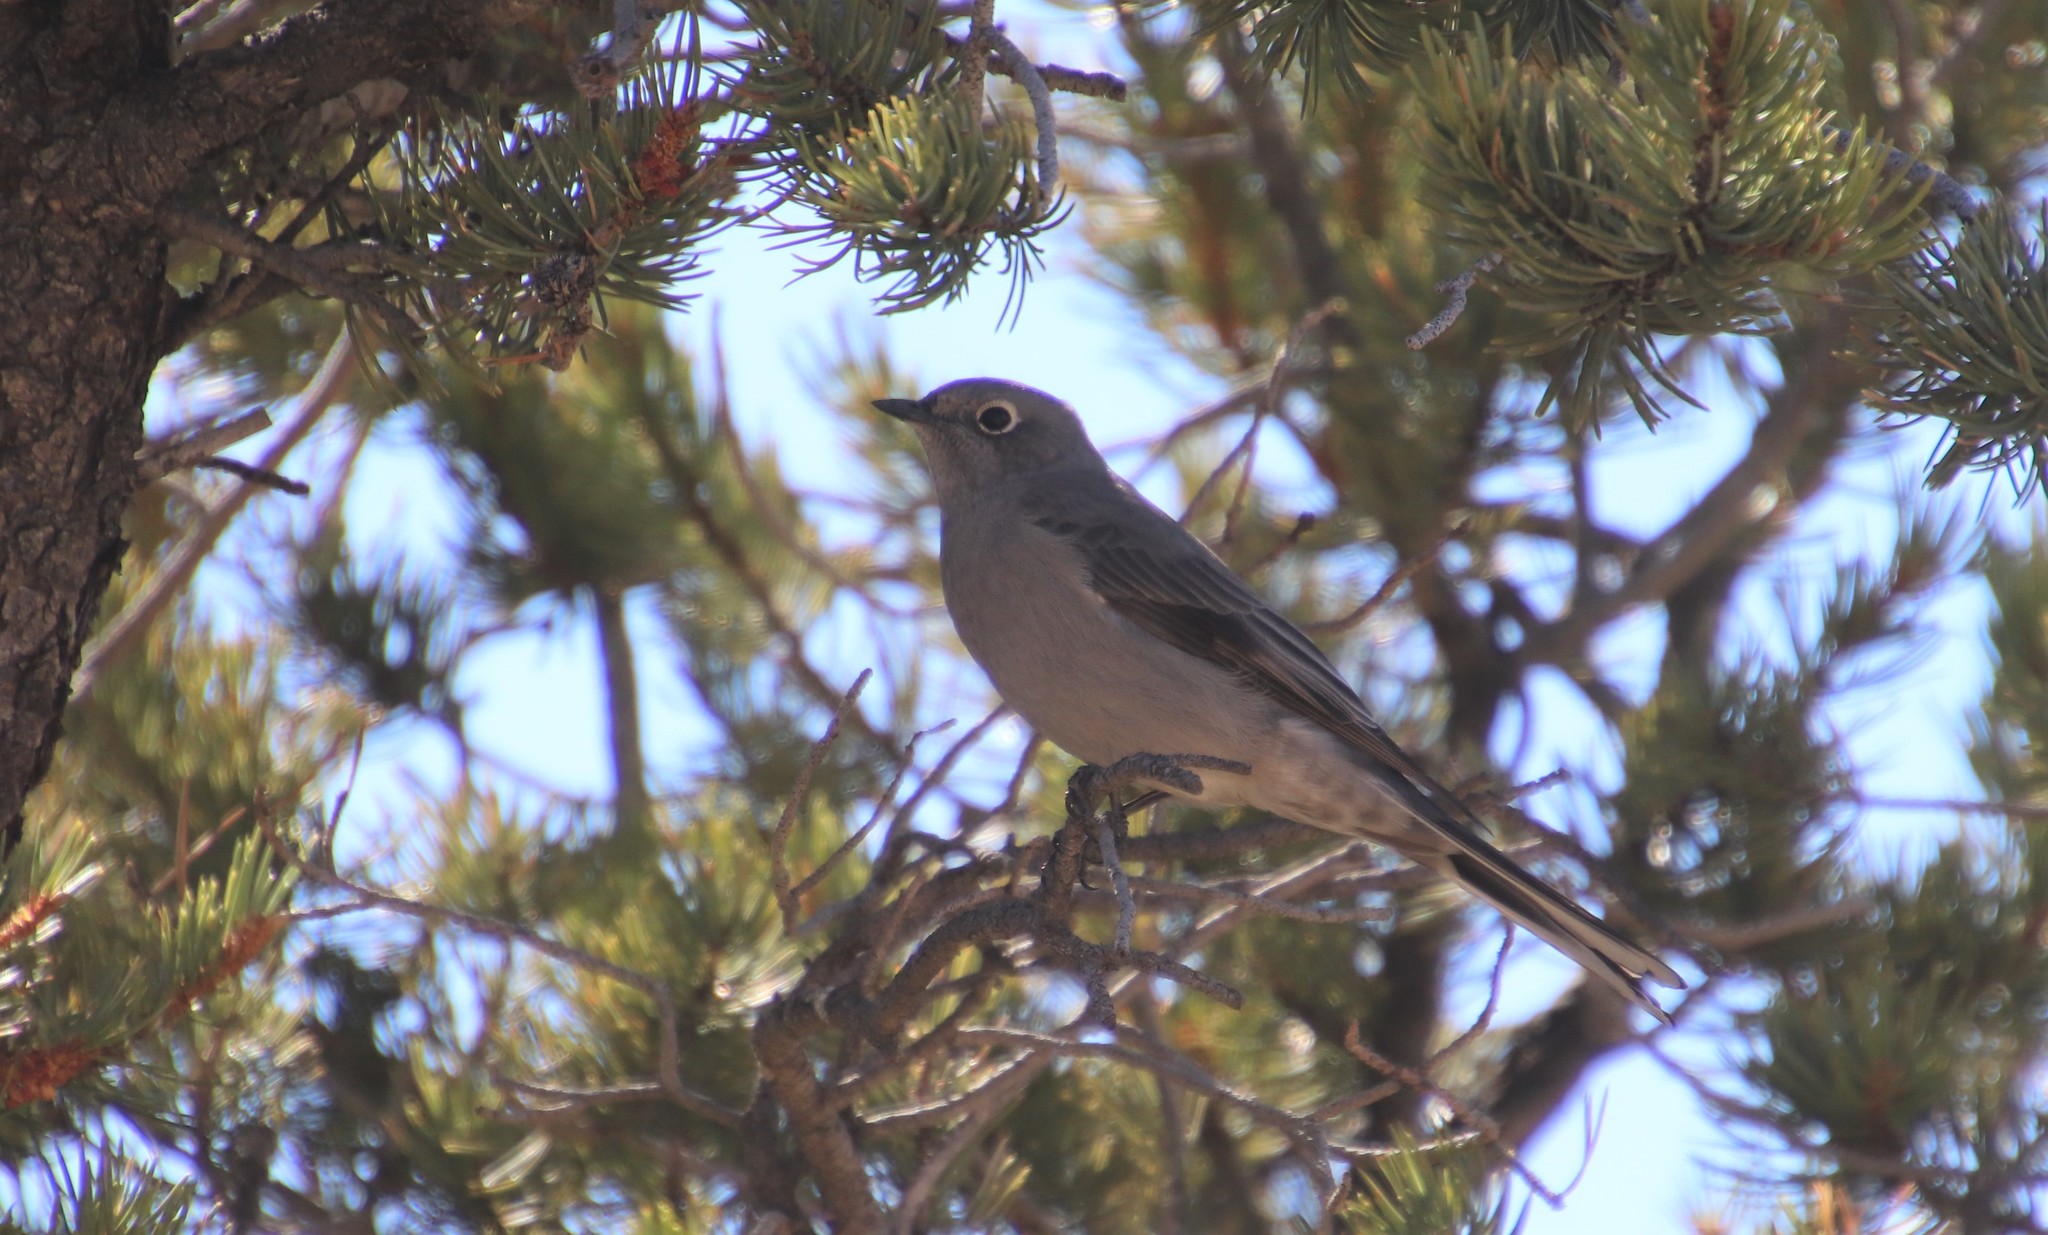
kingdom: Animalia
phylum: Chordata
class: Aves
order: Passeriformes
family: Turdidae
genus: Myadestes
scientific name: Myadestes townsendi
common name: Townsend's solitaire
